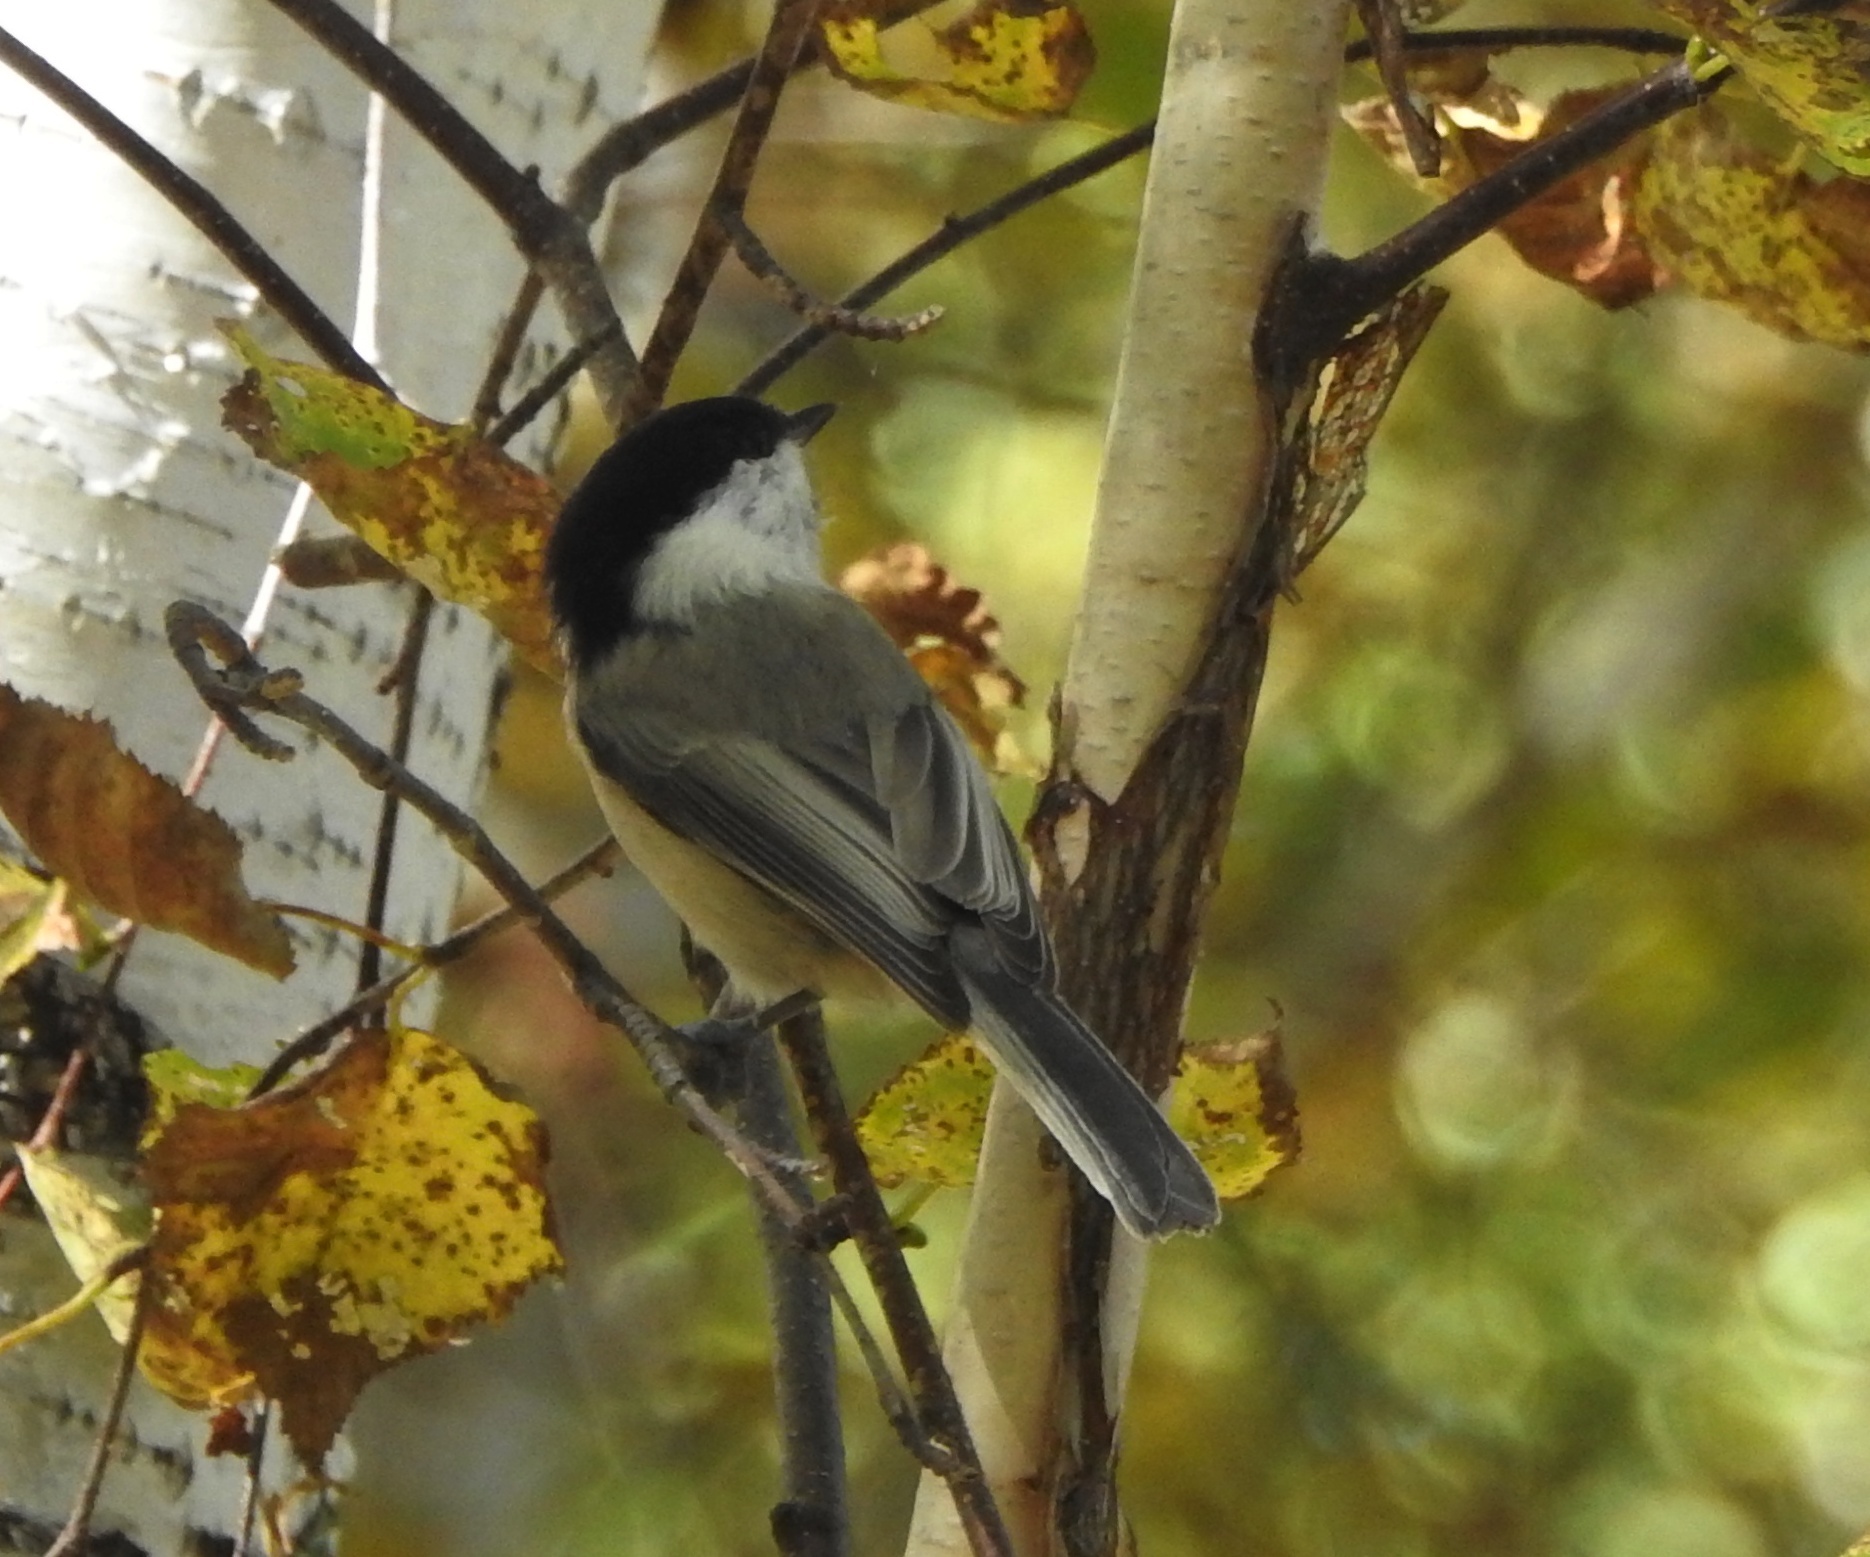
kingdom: Animalia
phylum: Chordata
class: Aves
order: Passeriformes
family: Paridae
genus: Poecile
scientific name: Poecile montanus
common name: Willow tit
